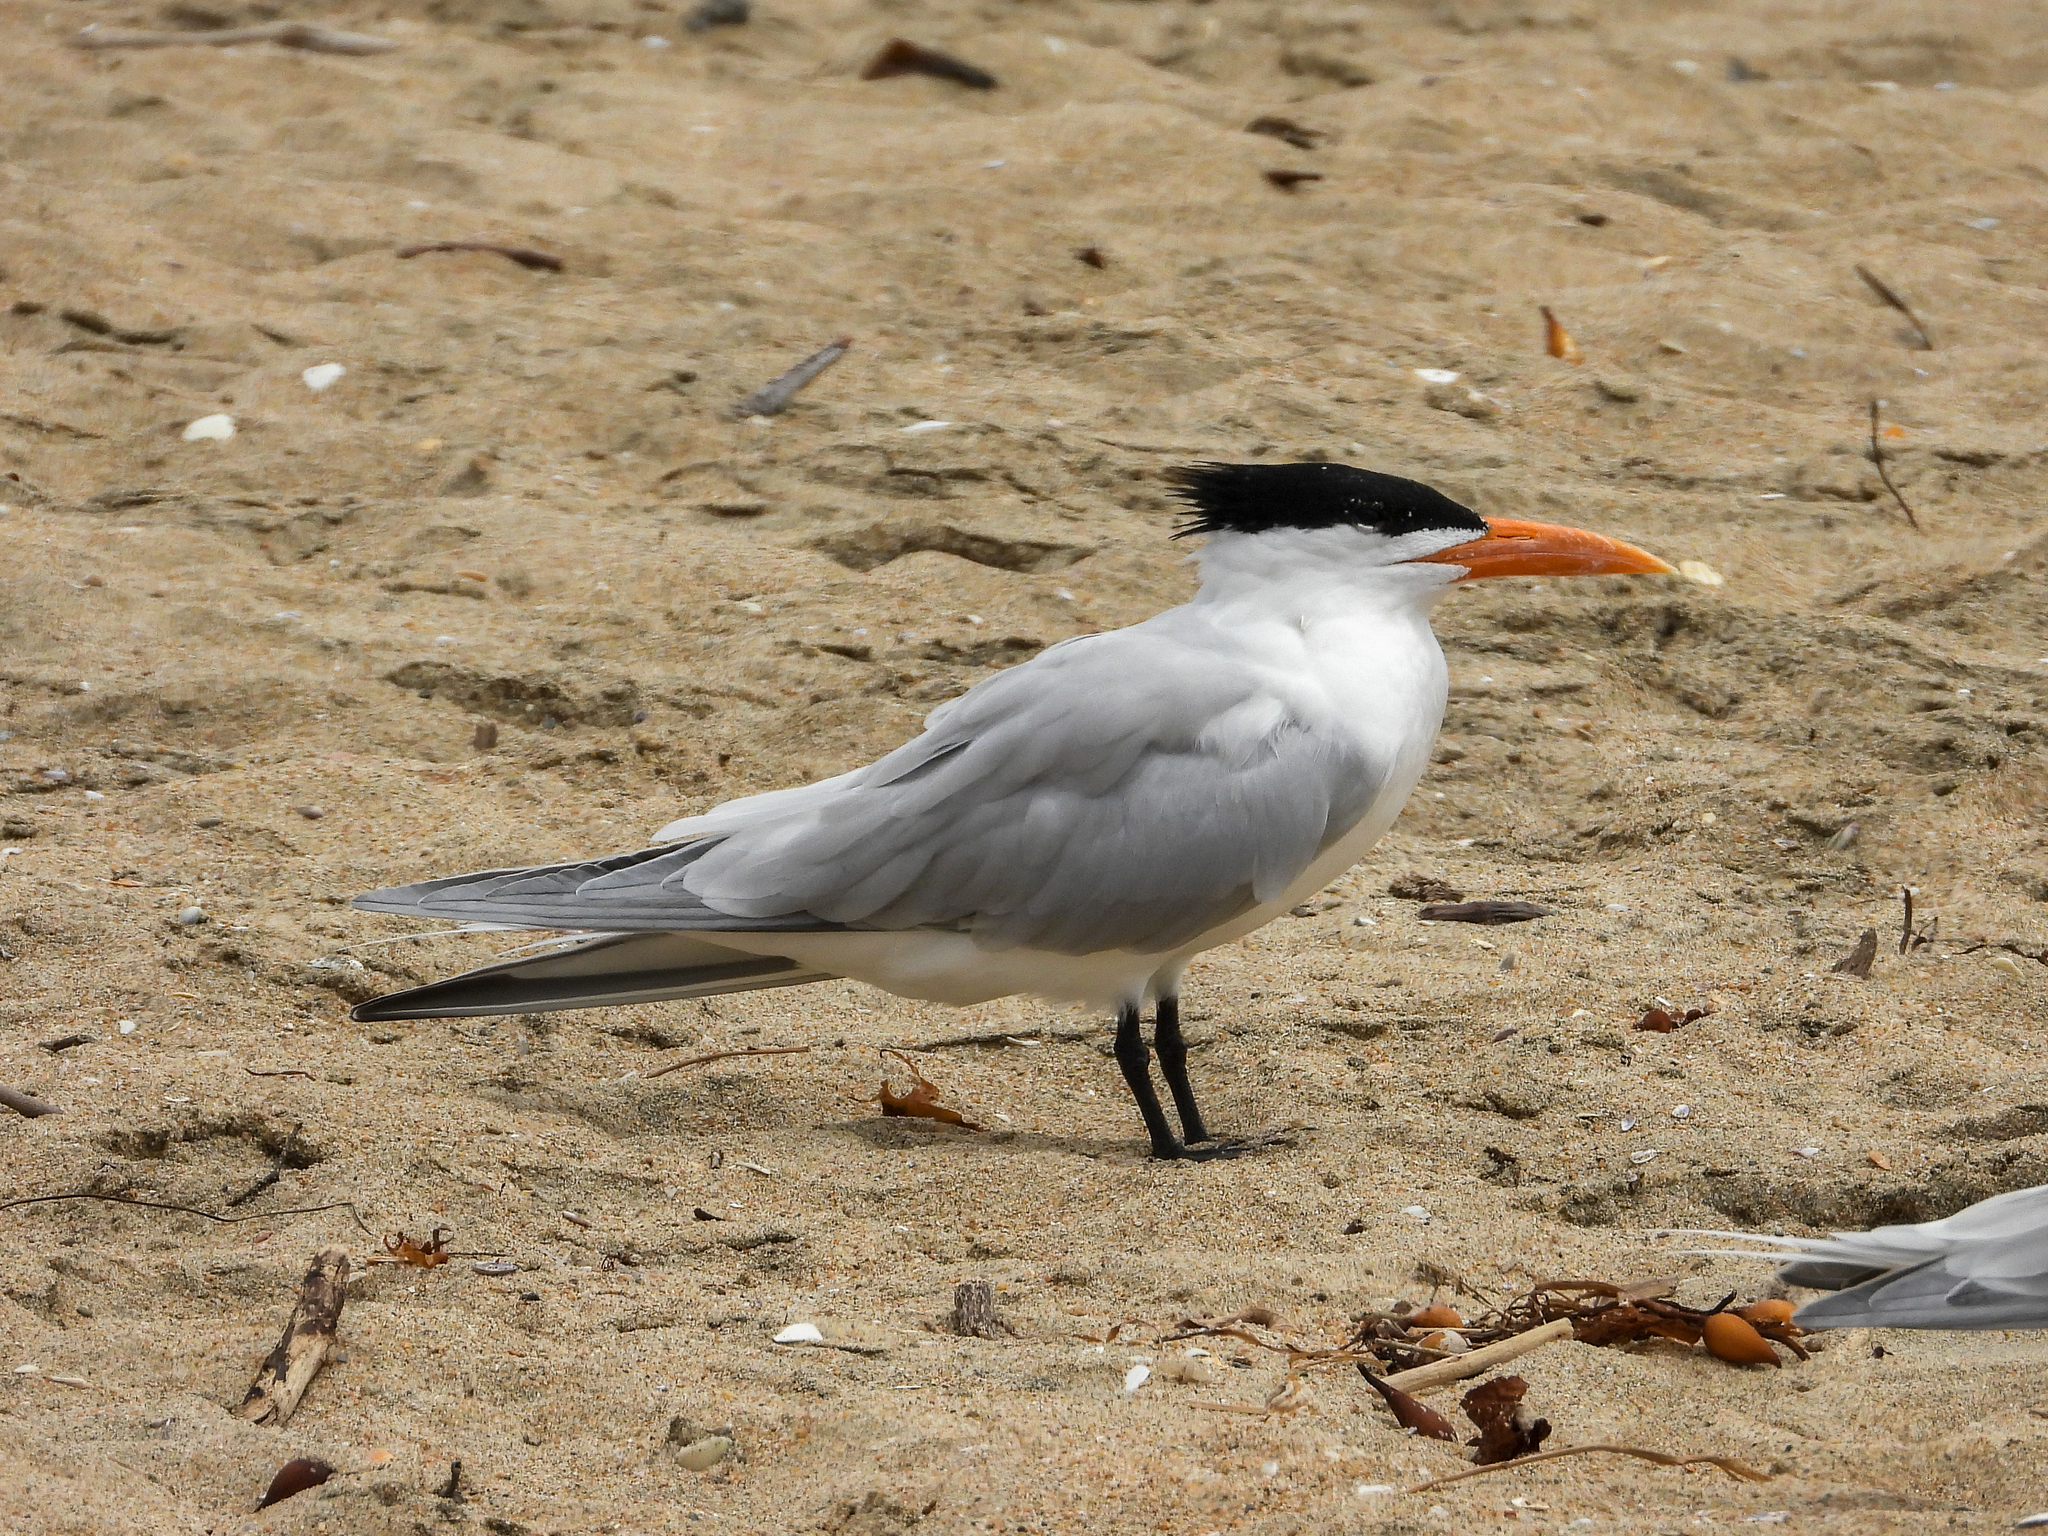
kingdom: Animalia
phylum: Chordata
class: Aves
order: Charadriiformes
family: Laridae
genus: Thalasseus
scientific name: Thalasseus maximus
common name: Royal tern
